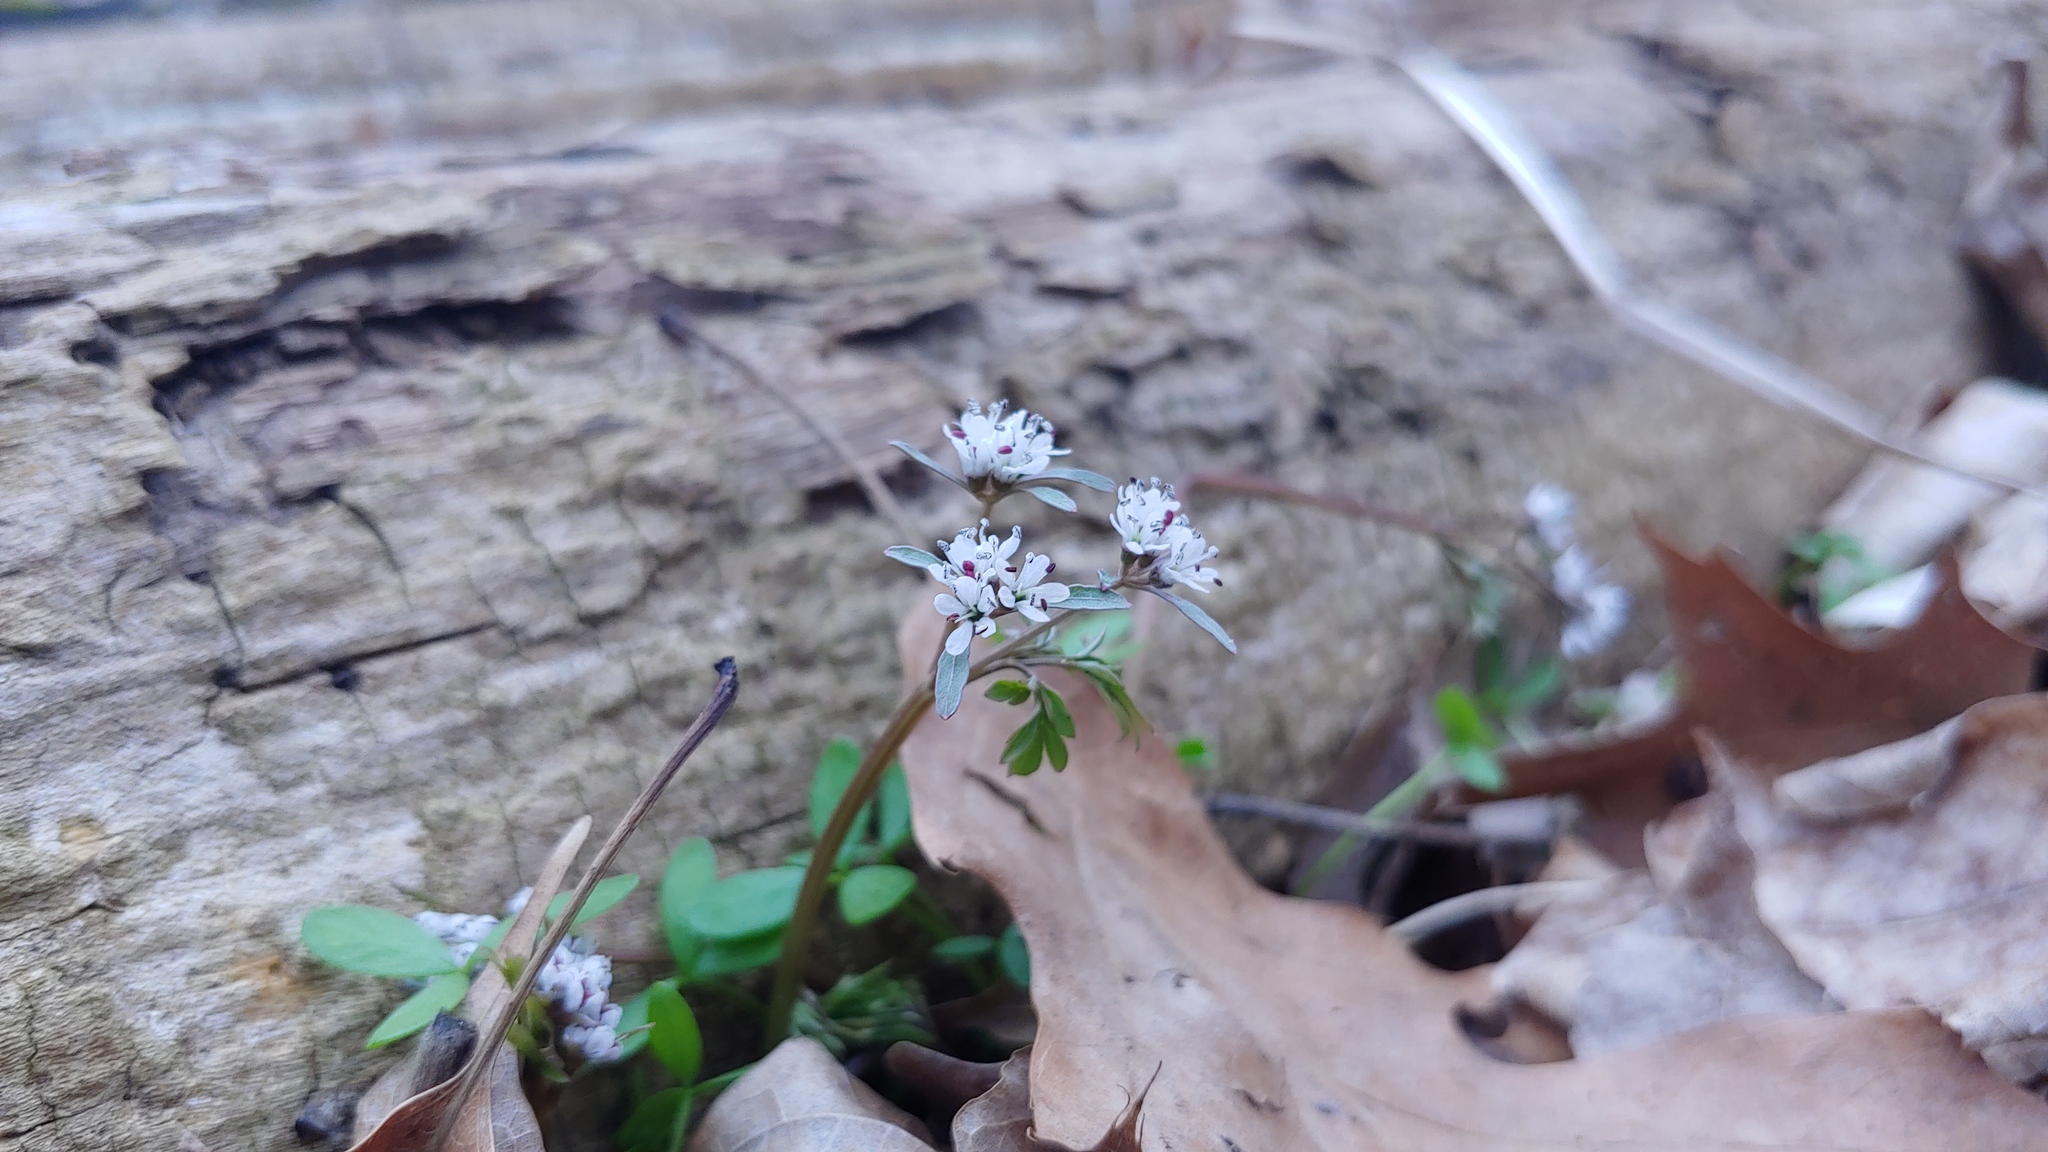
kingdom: Plantae
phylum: Tracheophyta
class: Magnoliopsida
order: Apiales
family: Apiaceae
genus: Erigenia
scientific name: Erigenia bulbosa
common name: Pepper-and-salt
